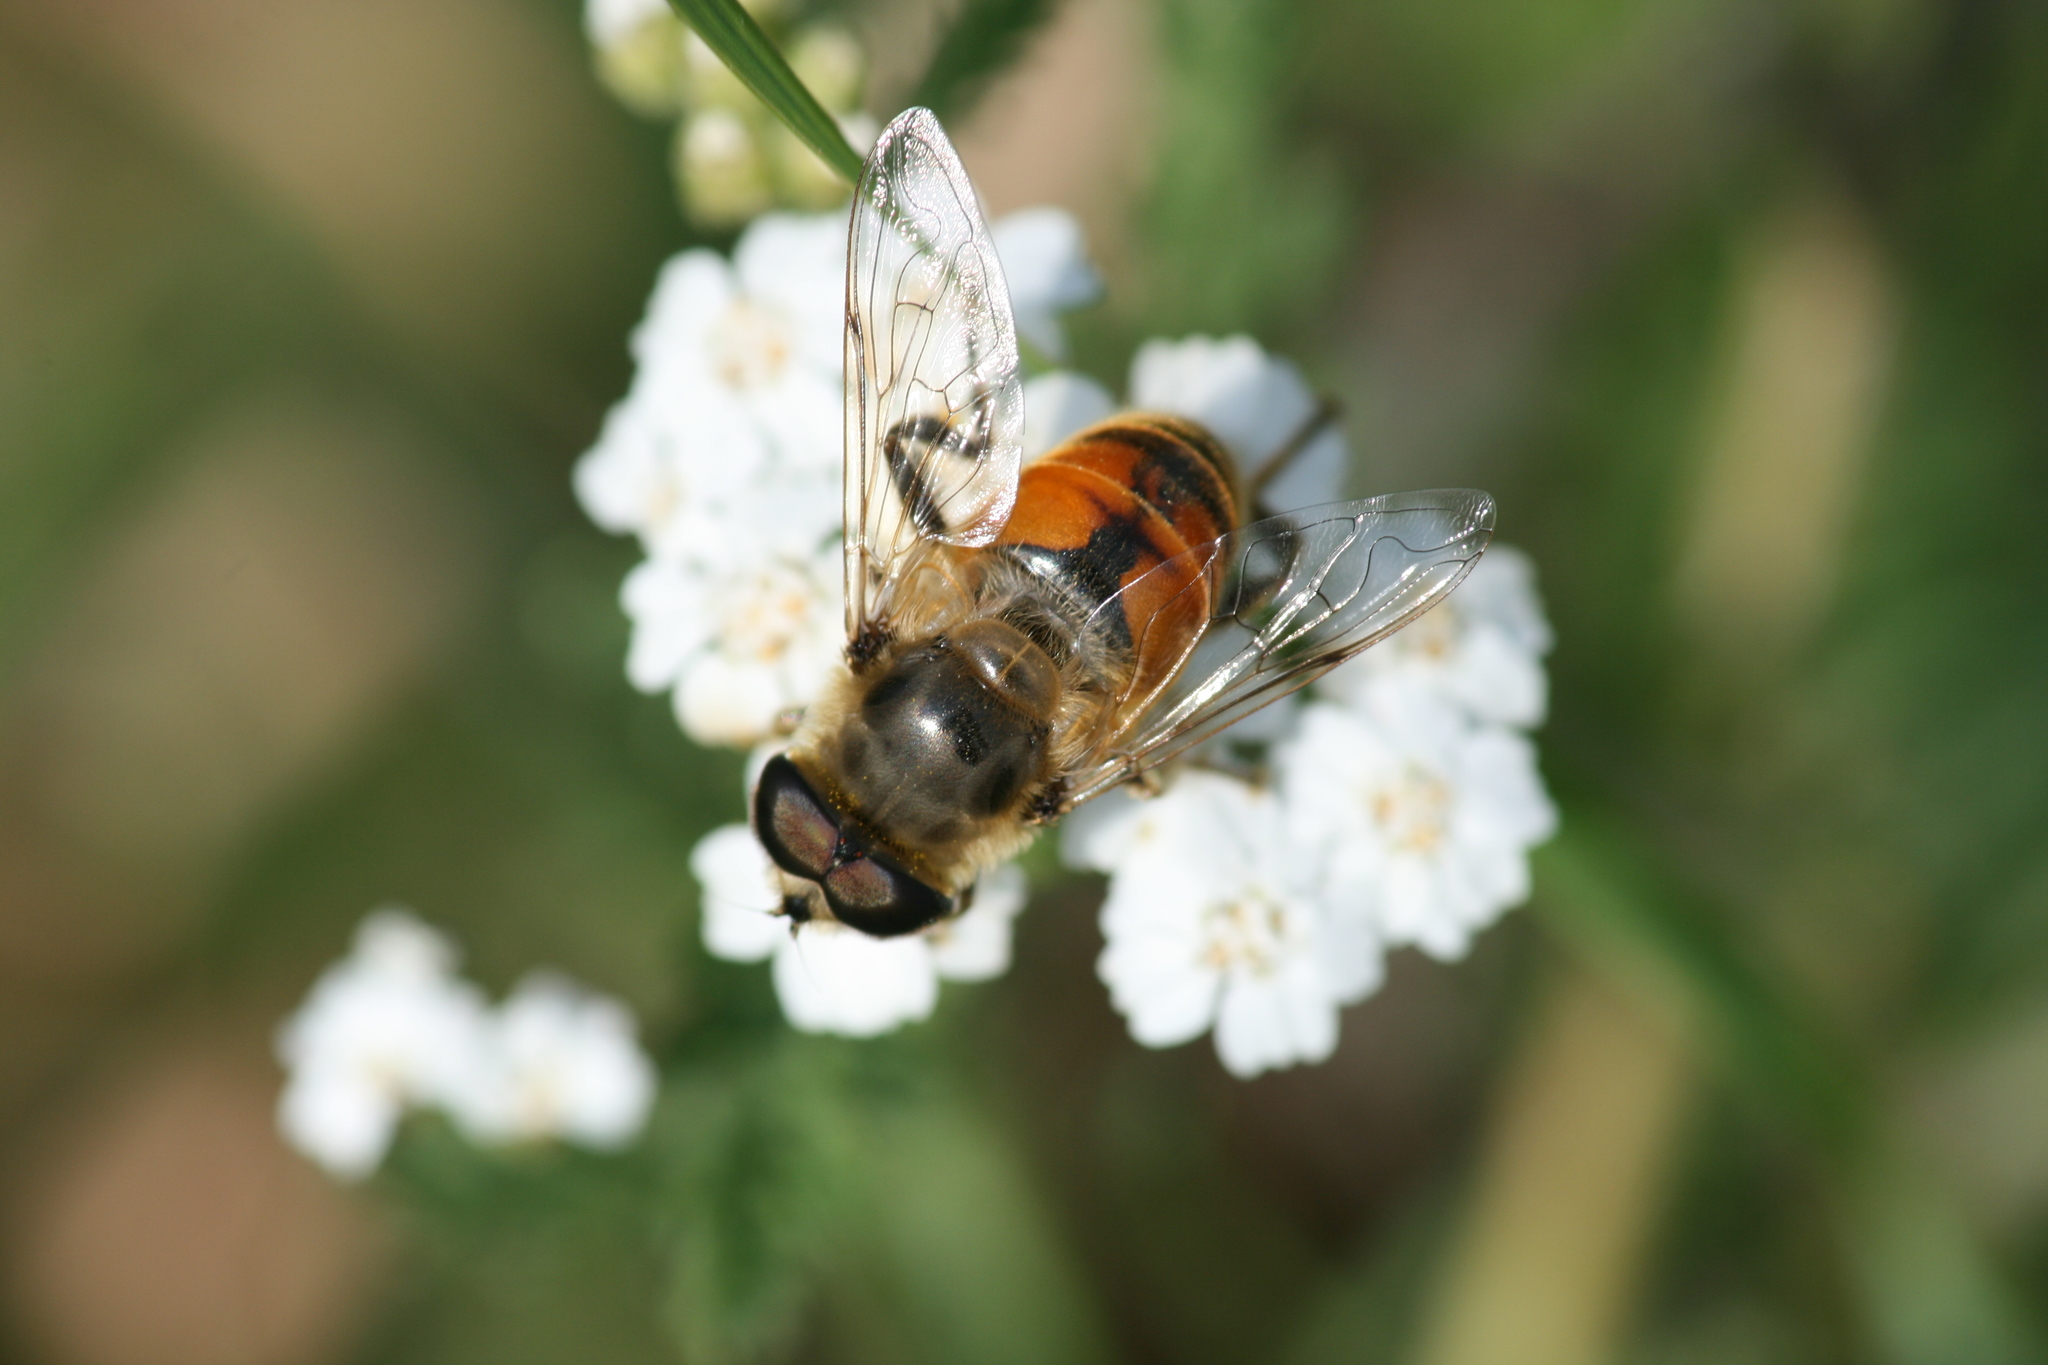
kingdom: Animalia
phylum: Arthropoda
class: Insecta
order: Diptera
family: Syrphidae
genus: Eristalis
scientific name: Eristalis tenax
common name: Drone fly
